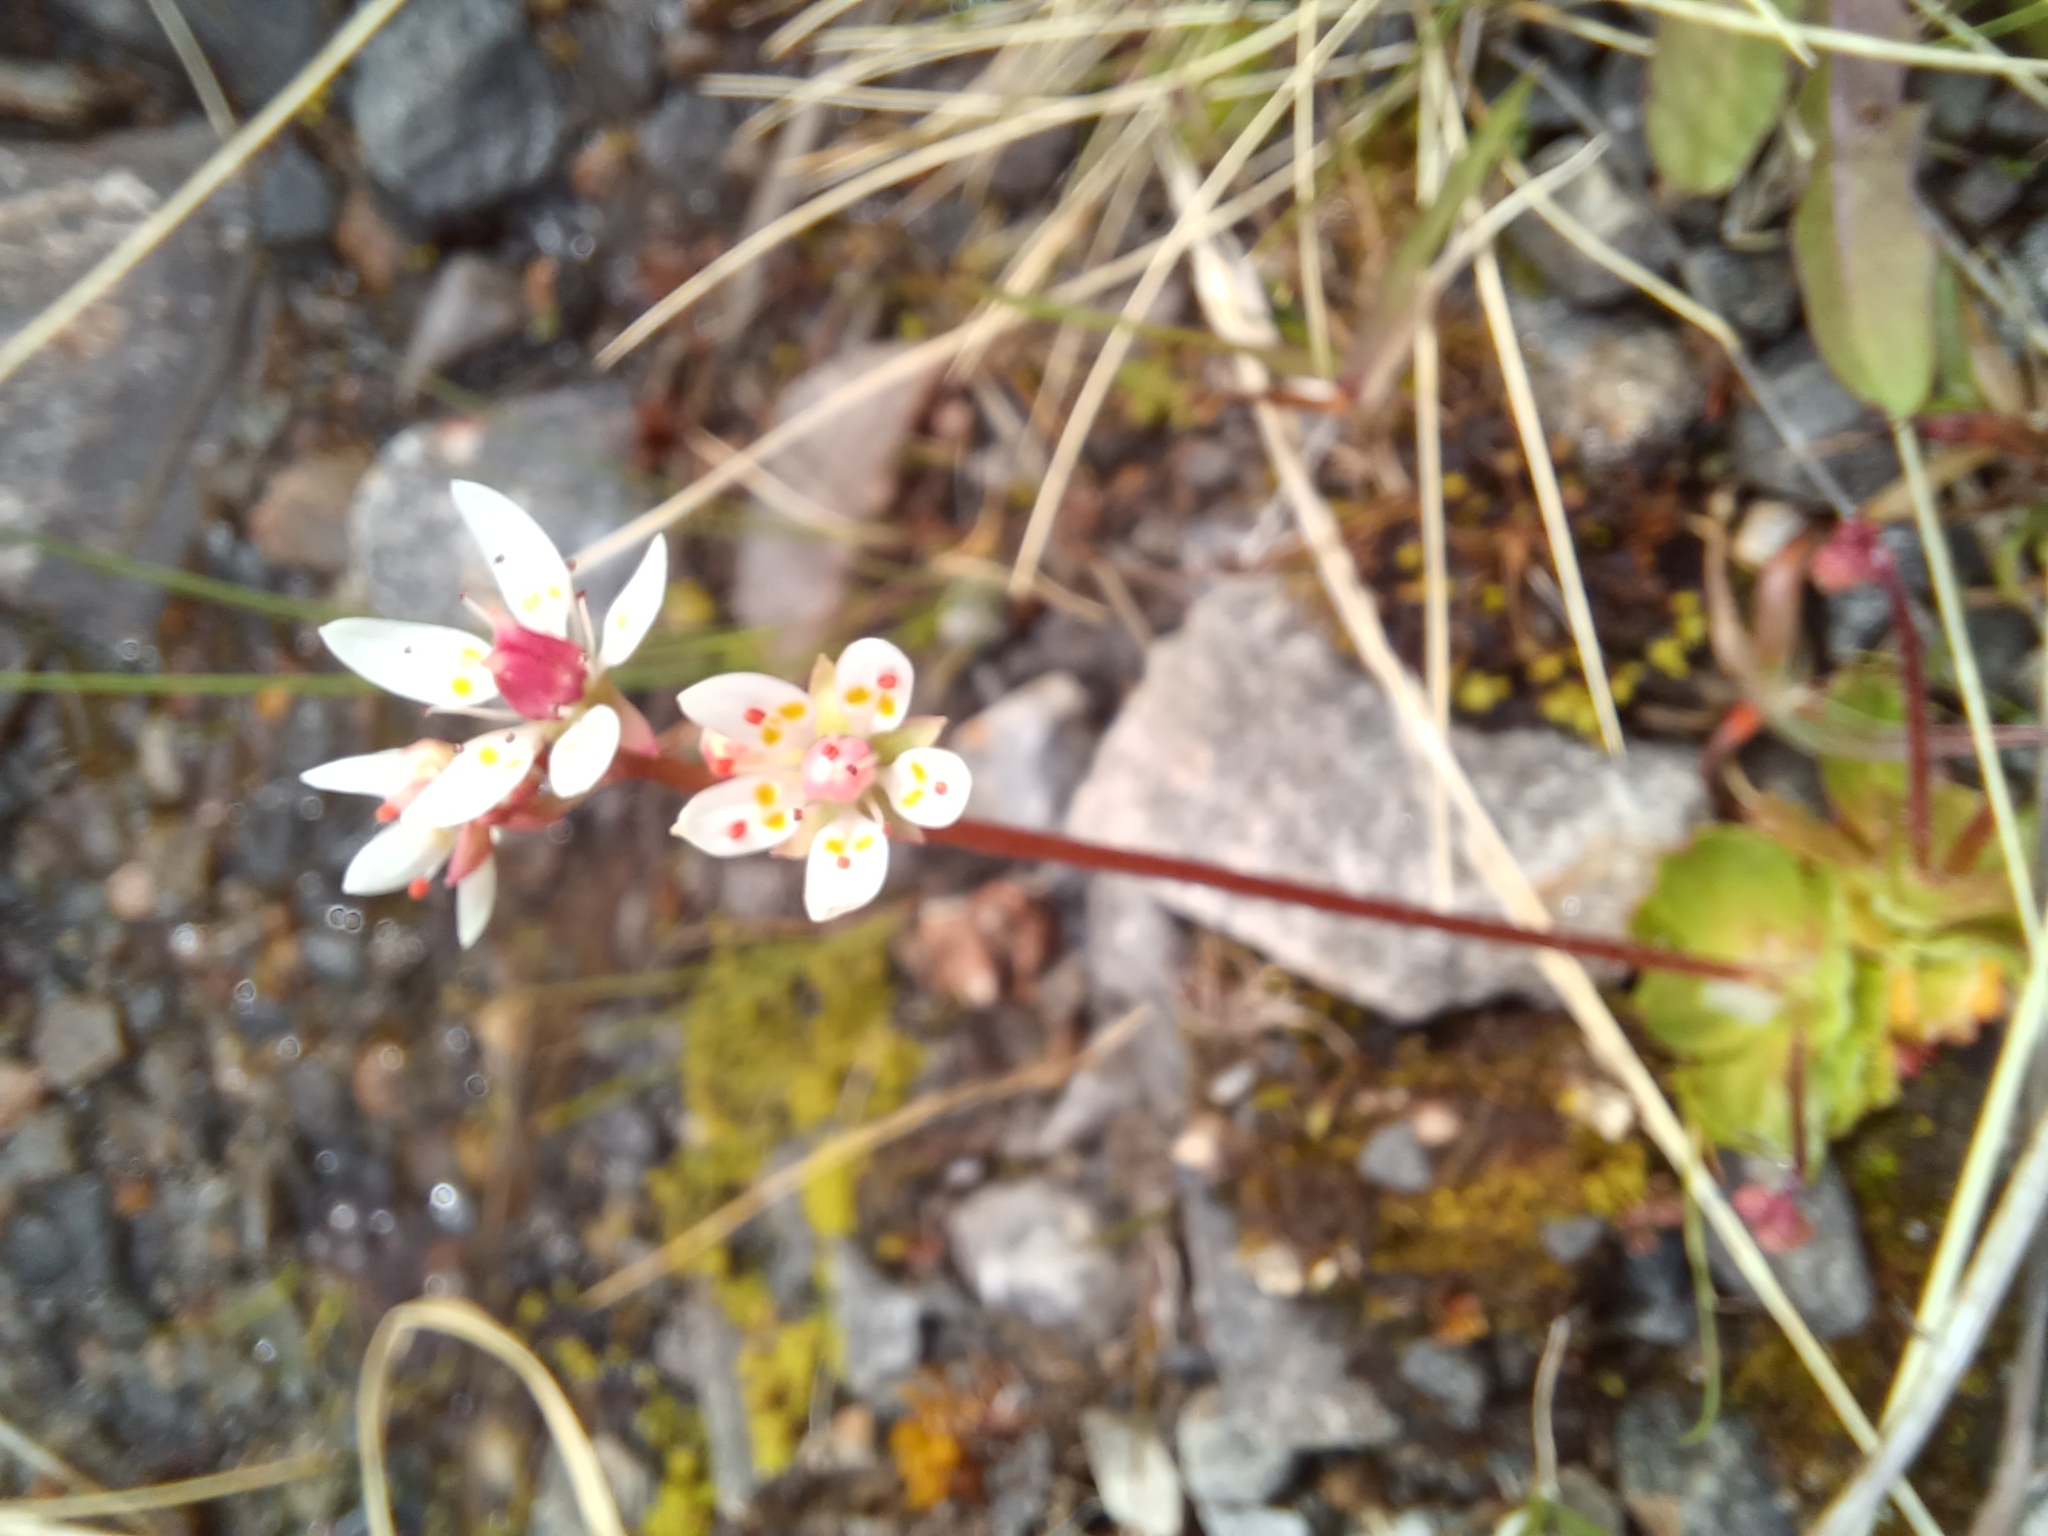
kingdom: Plantae
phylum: Tracheophyta
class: Magnoliopsida
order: Saxifragales
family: Saxifragaceae
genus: Micranthes
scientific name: Micranthes stellaris
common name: Starry saxifrage
